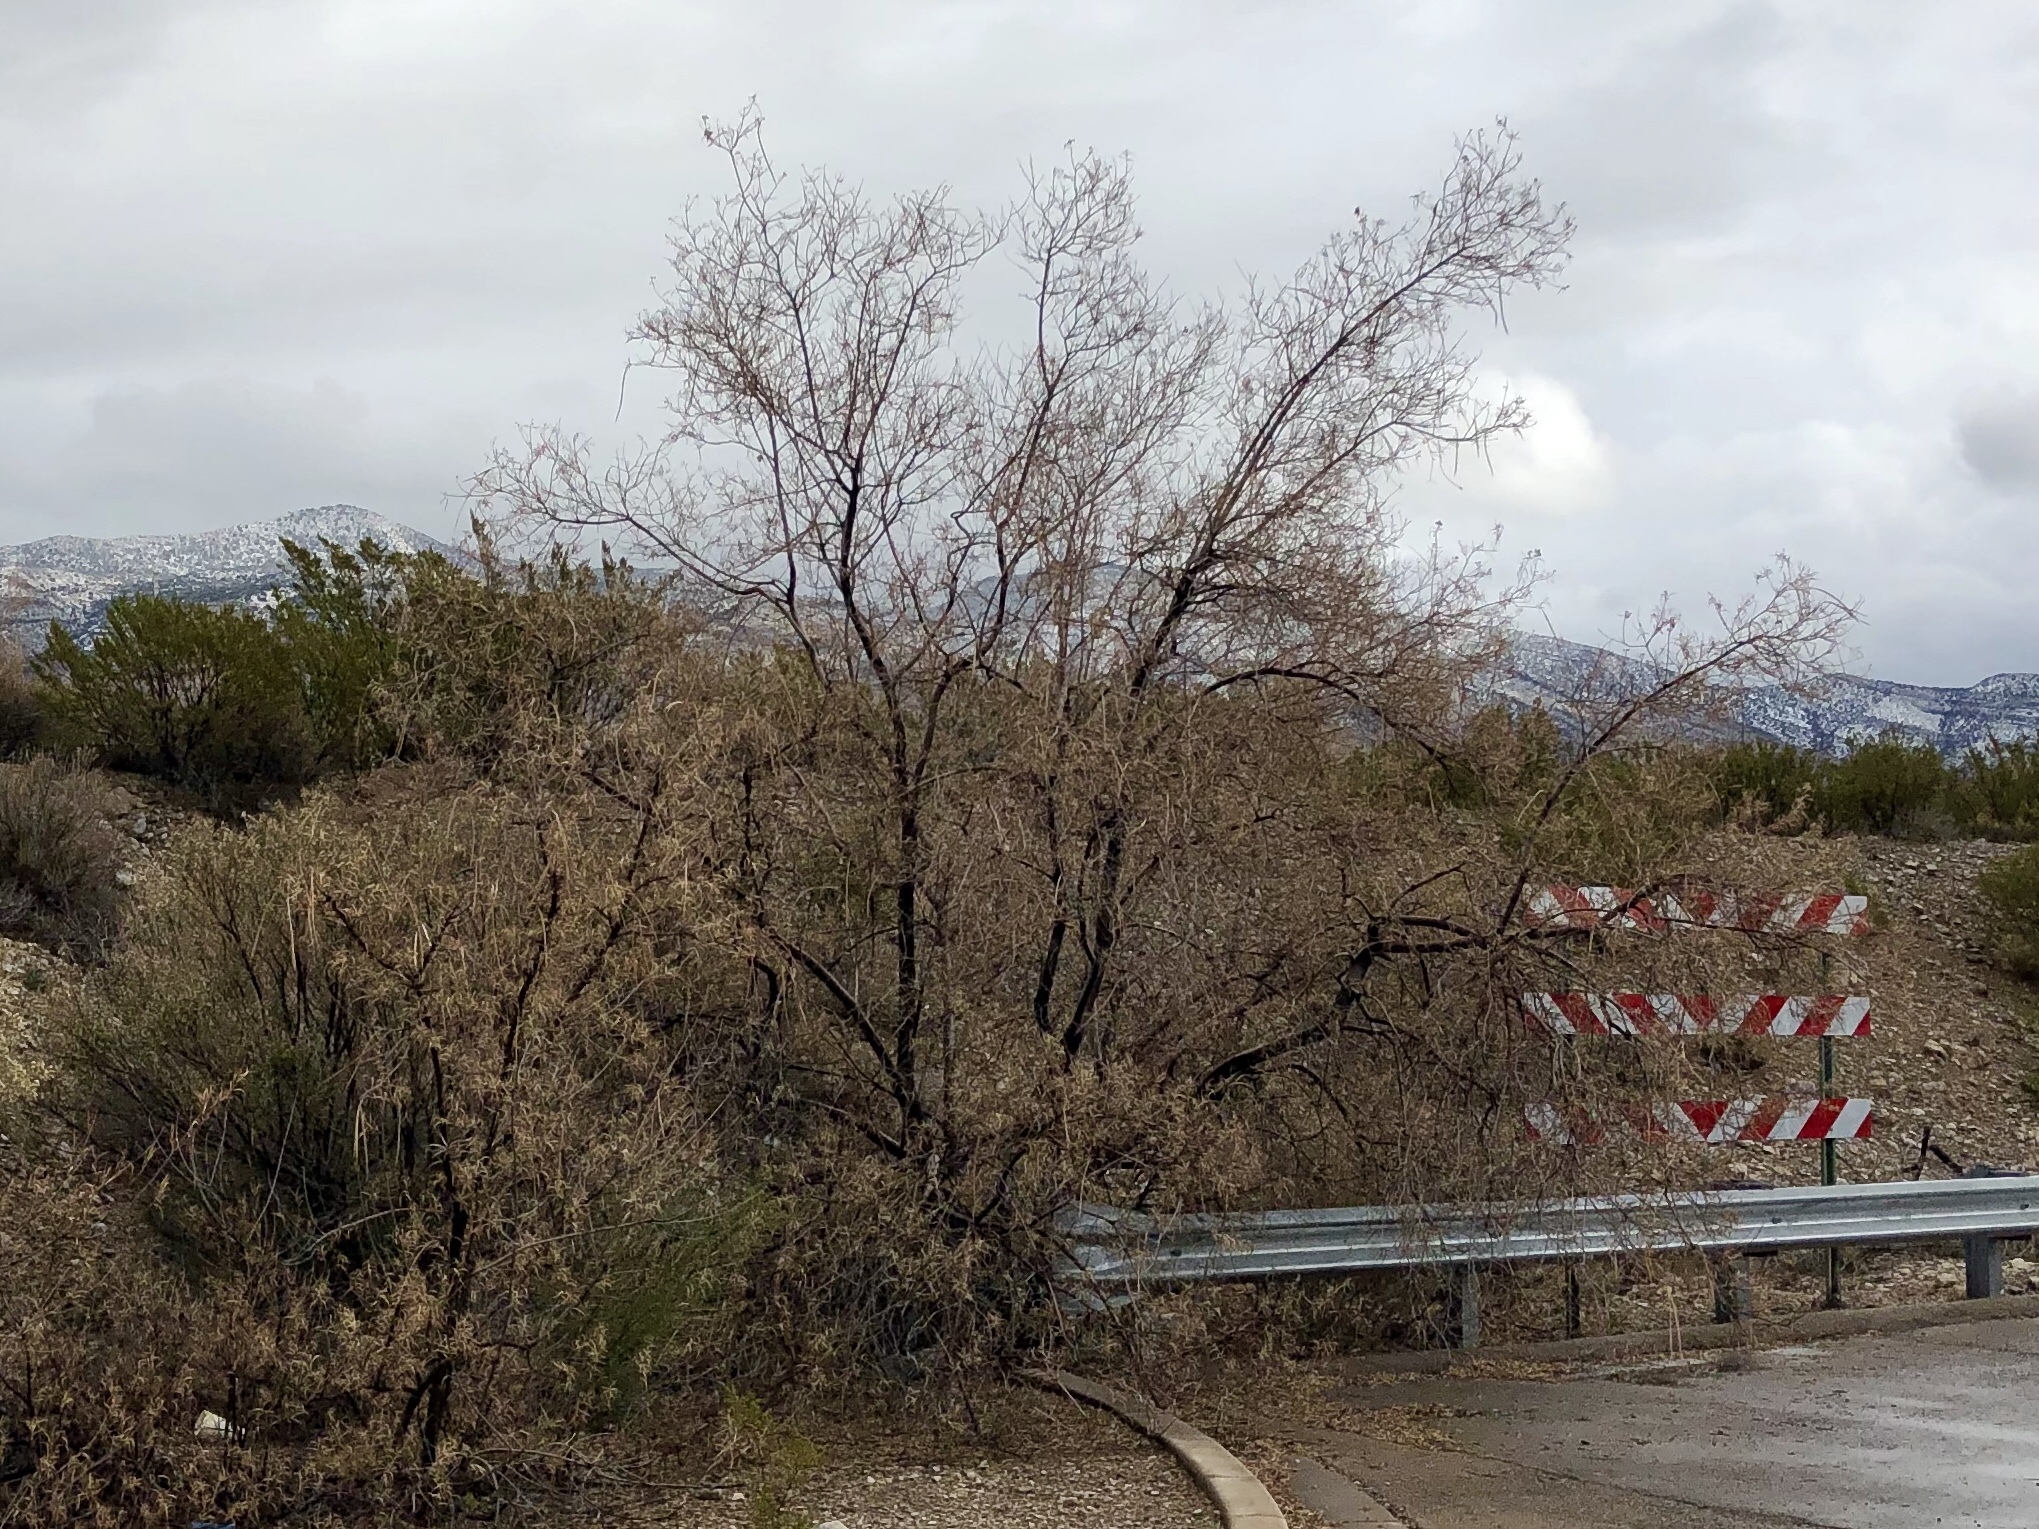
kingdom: Plantae
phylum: Tracheophyta
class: Magnoliopsida
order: Lamiales
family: Bignoniaceae
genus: Chilopsis
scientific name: Chilopsis linearis
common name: Desert-willow
